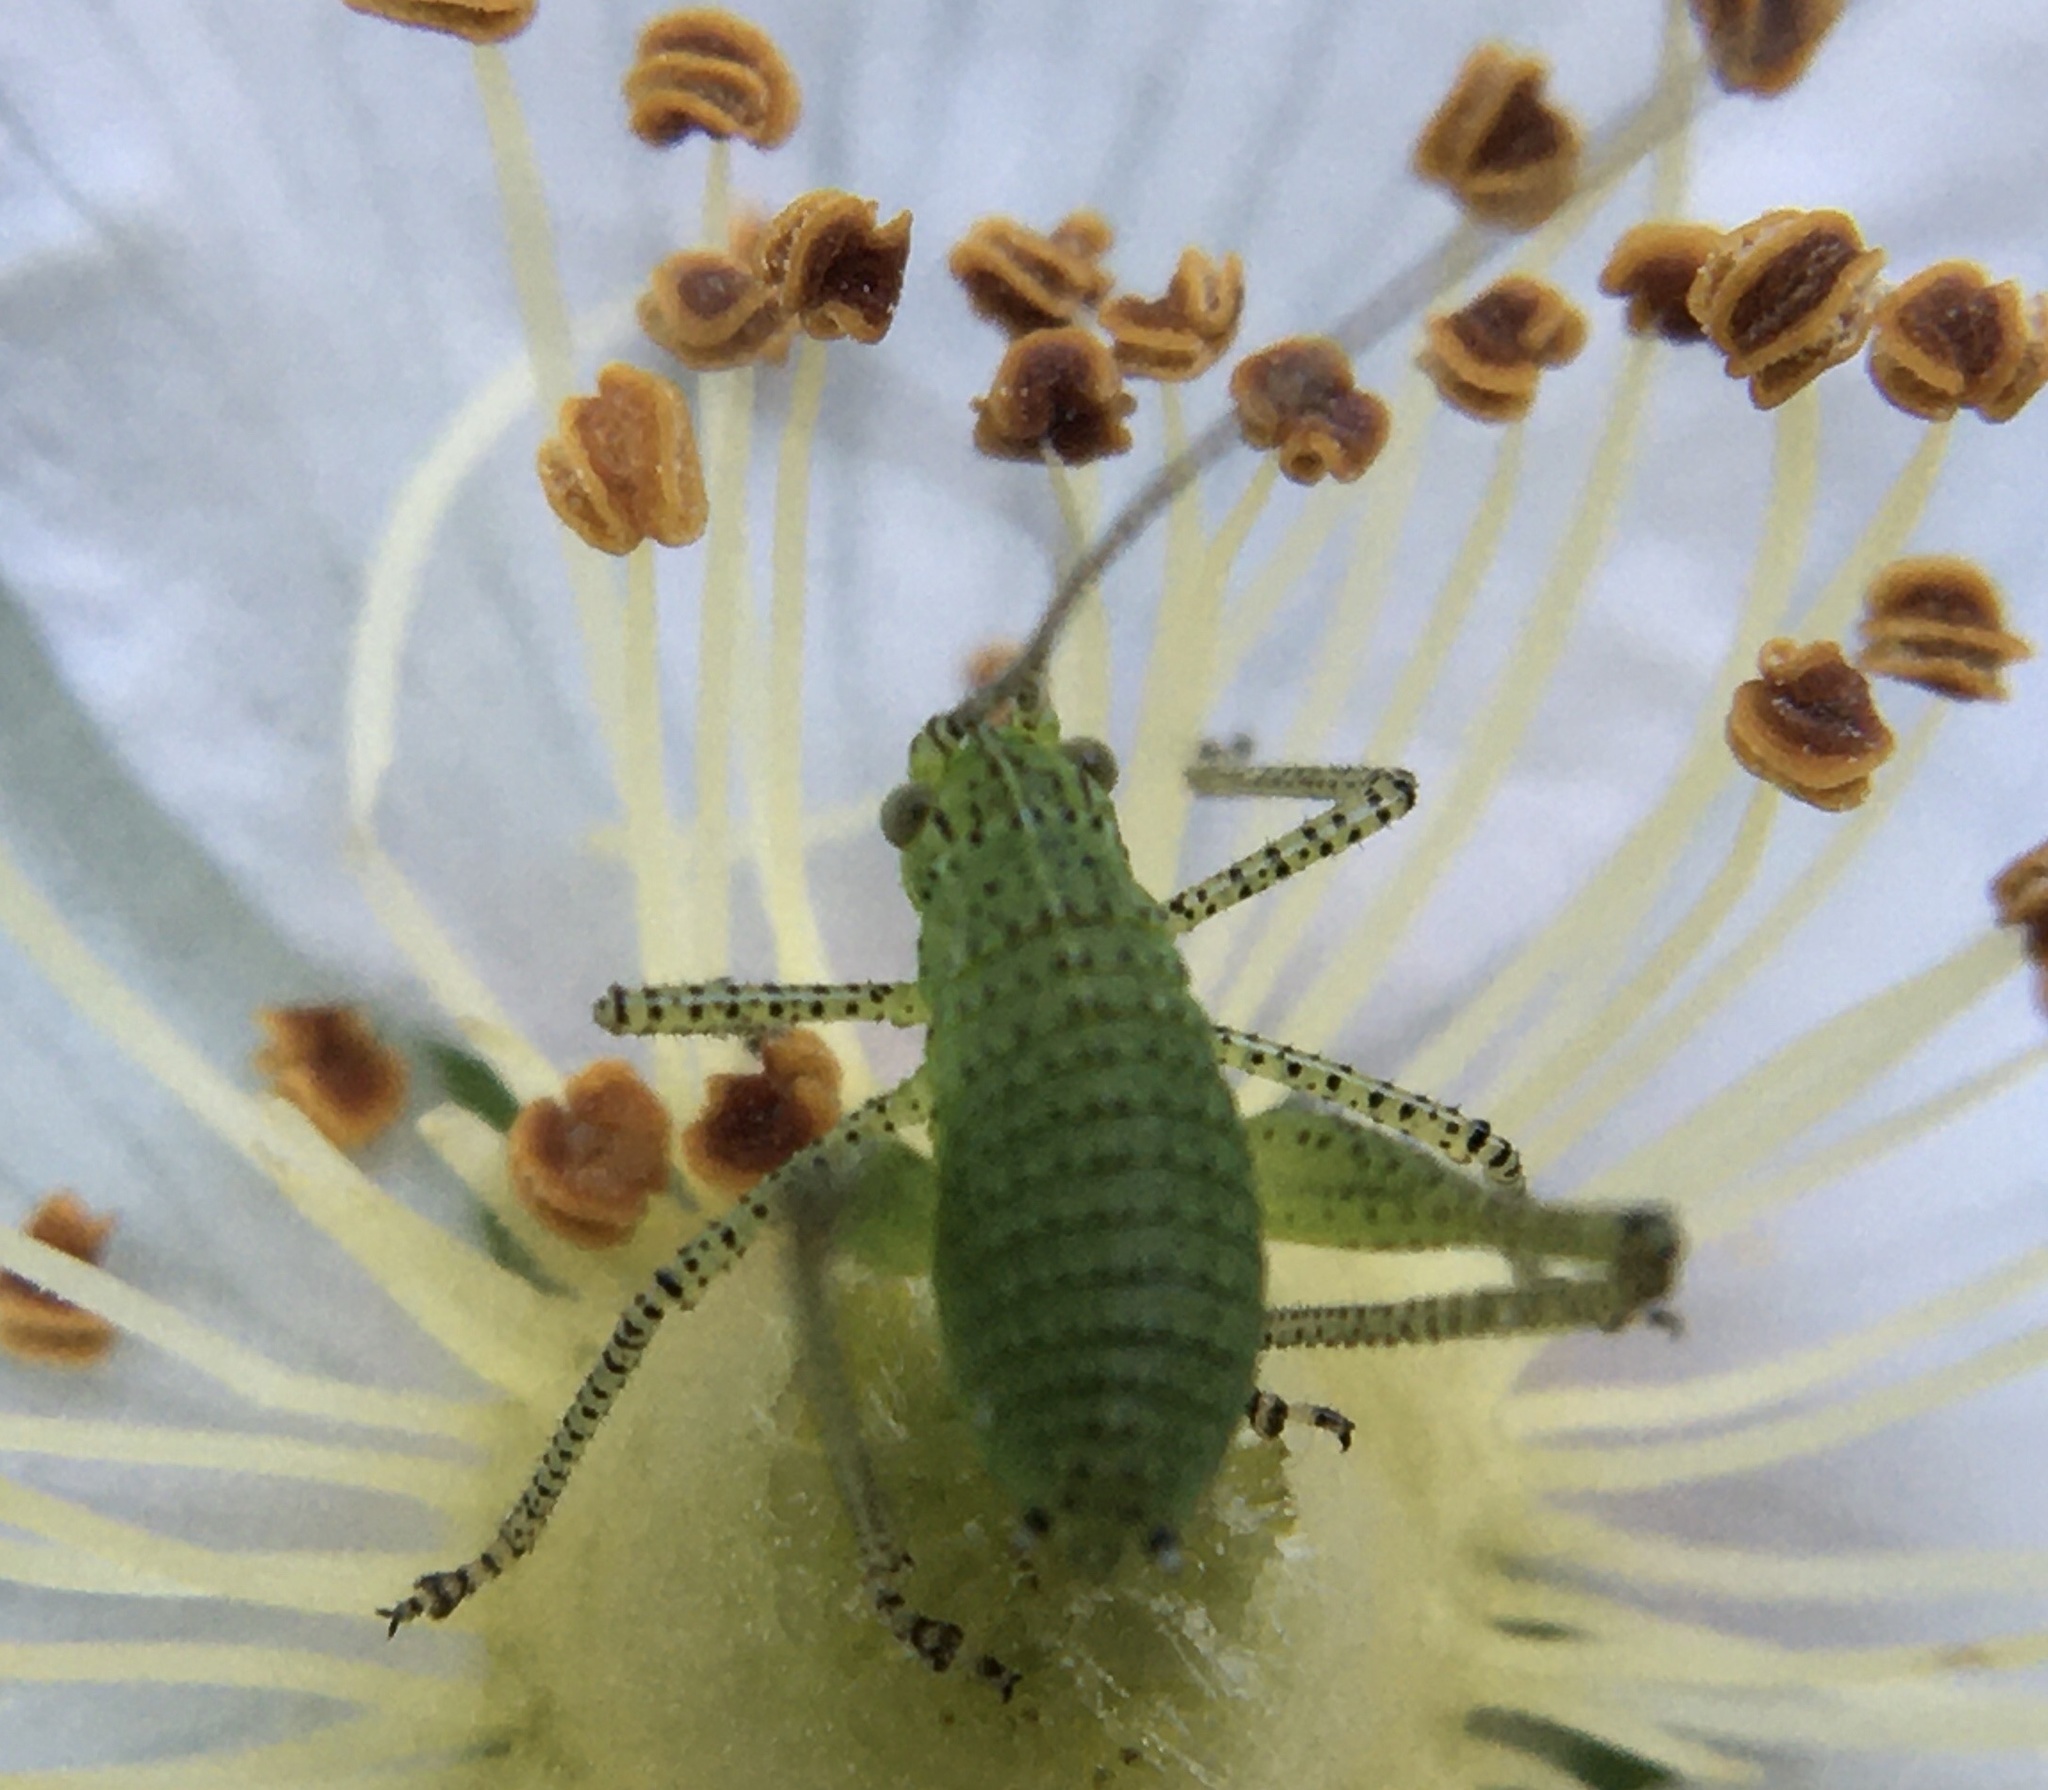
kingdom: Animalia
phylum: Arthropoda
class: Insecta
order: Orthoptera
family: Tettigoniidae
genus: Leptophyes
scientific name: Leptophyes punctatissima
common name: Speckled bush-cricket
